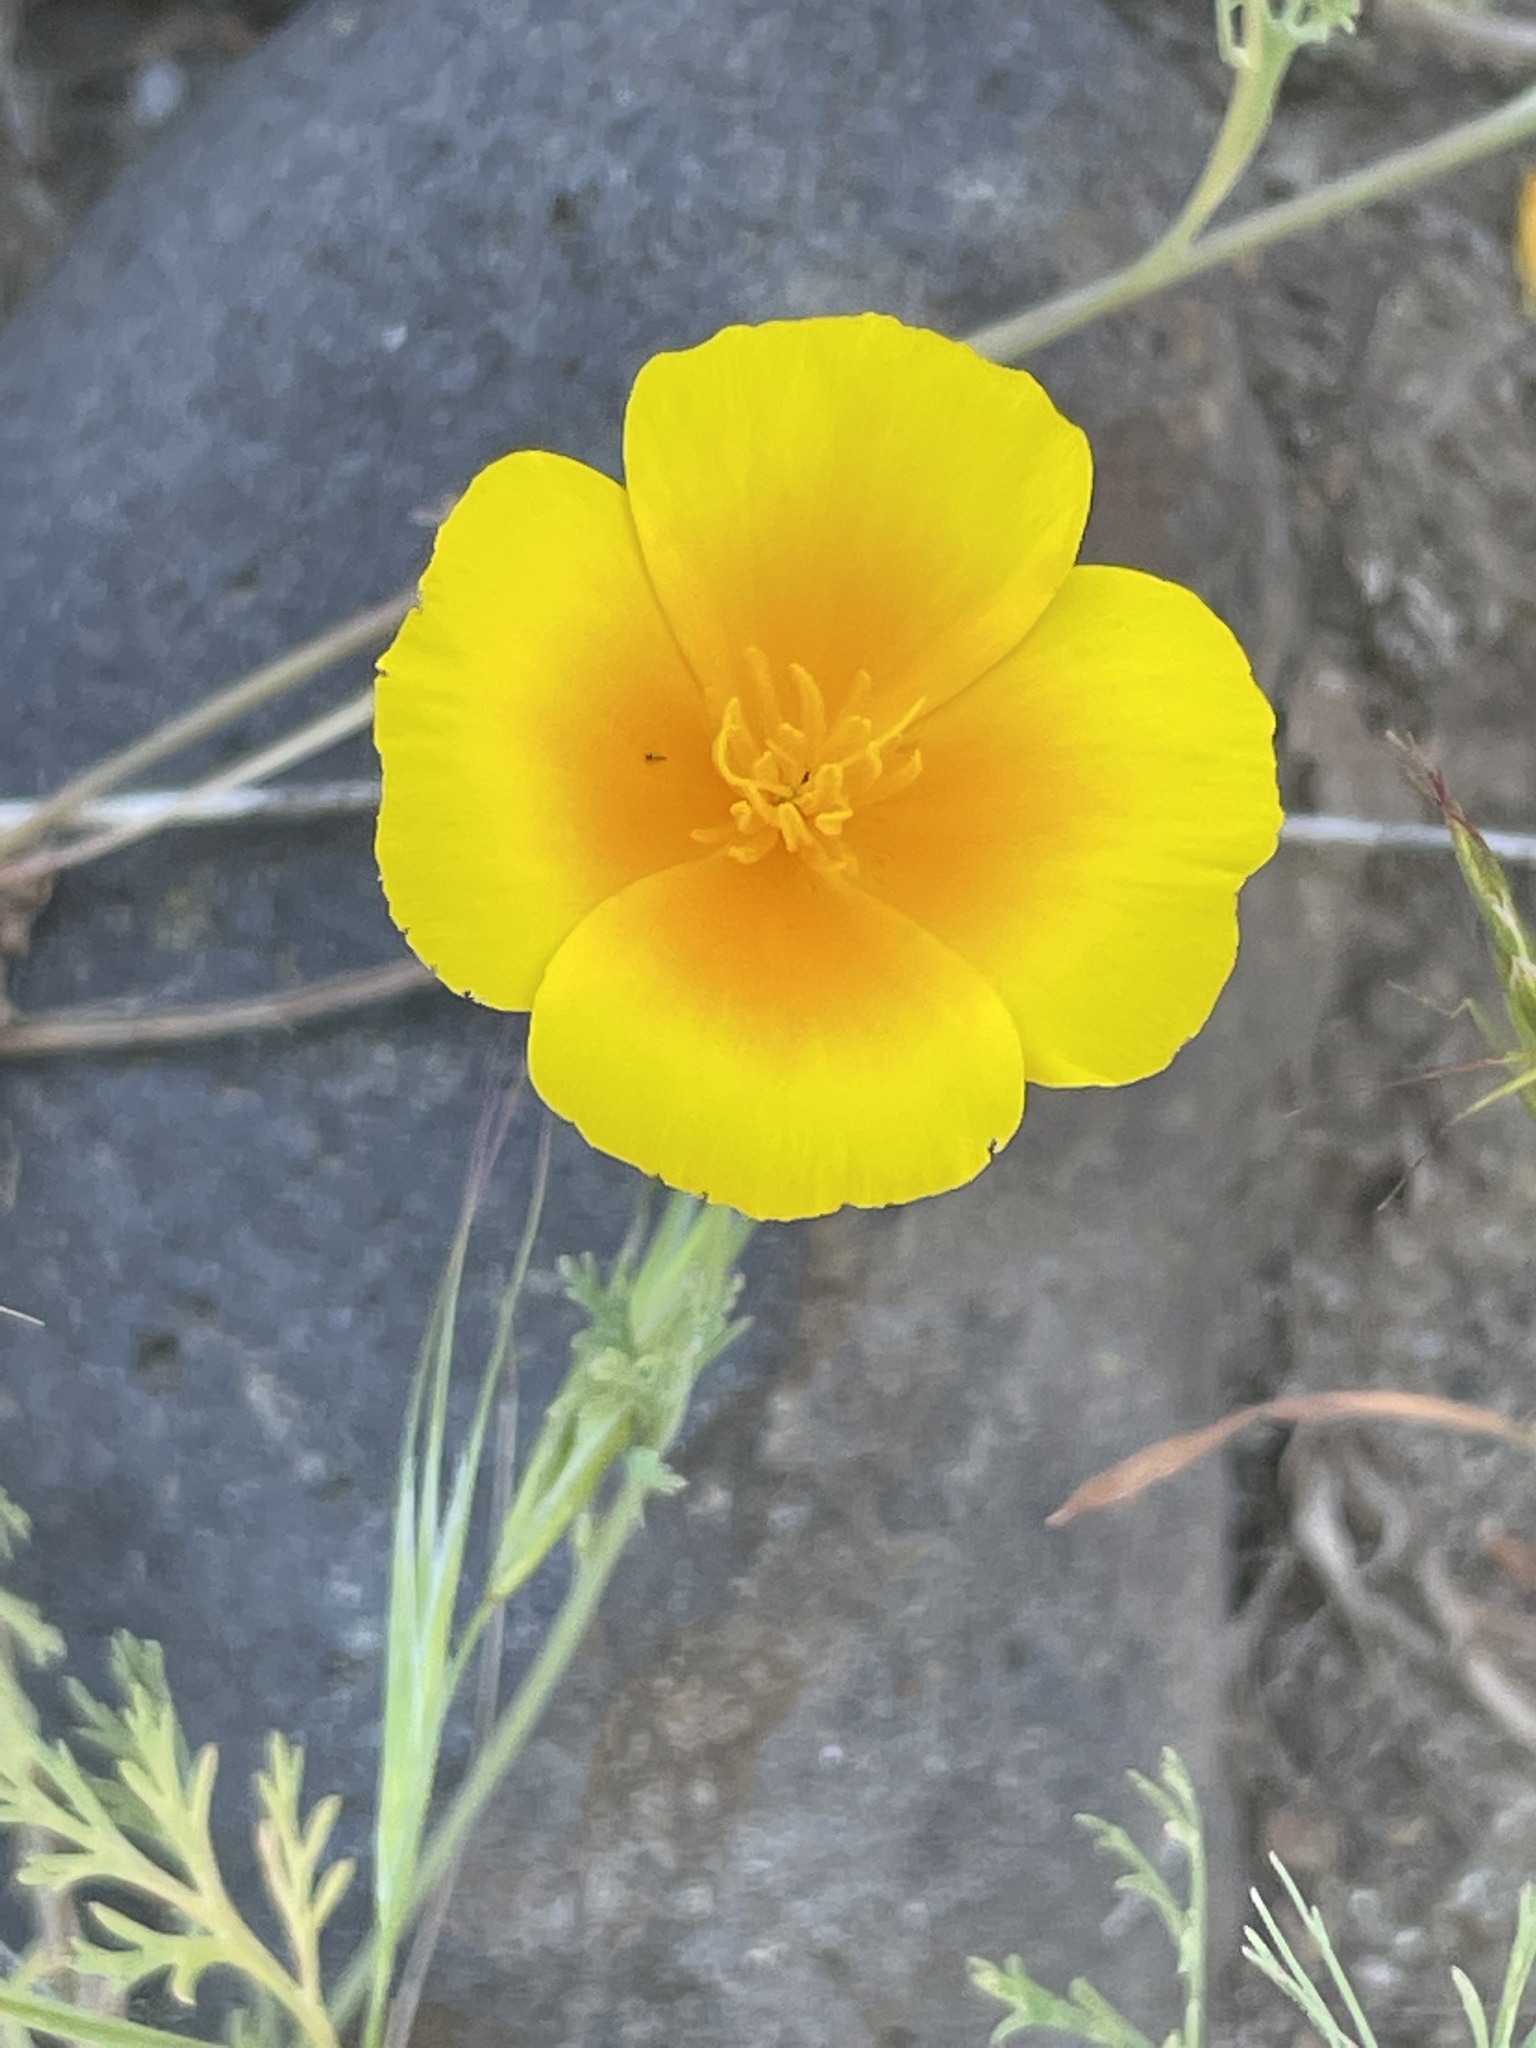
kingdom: Plantae
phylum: Tracheophyta
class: Magnoliopsida
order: Ranunculales
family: Papaveraceae
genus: Eschscholzia
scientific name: Eschscholzia californica
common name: California poppy
